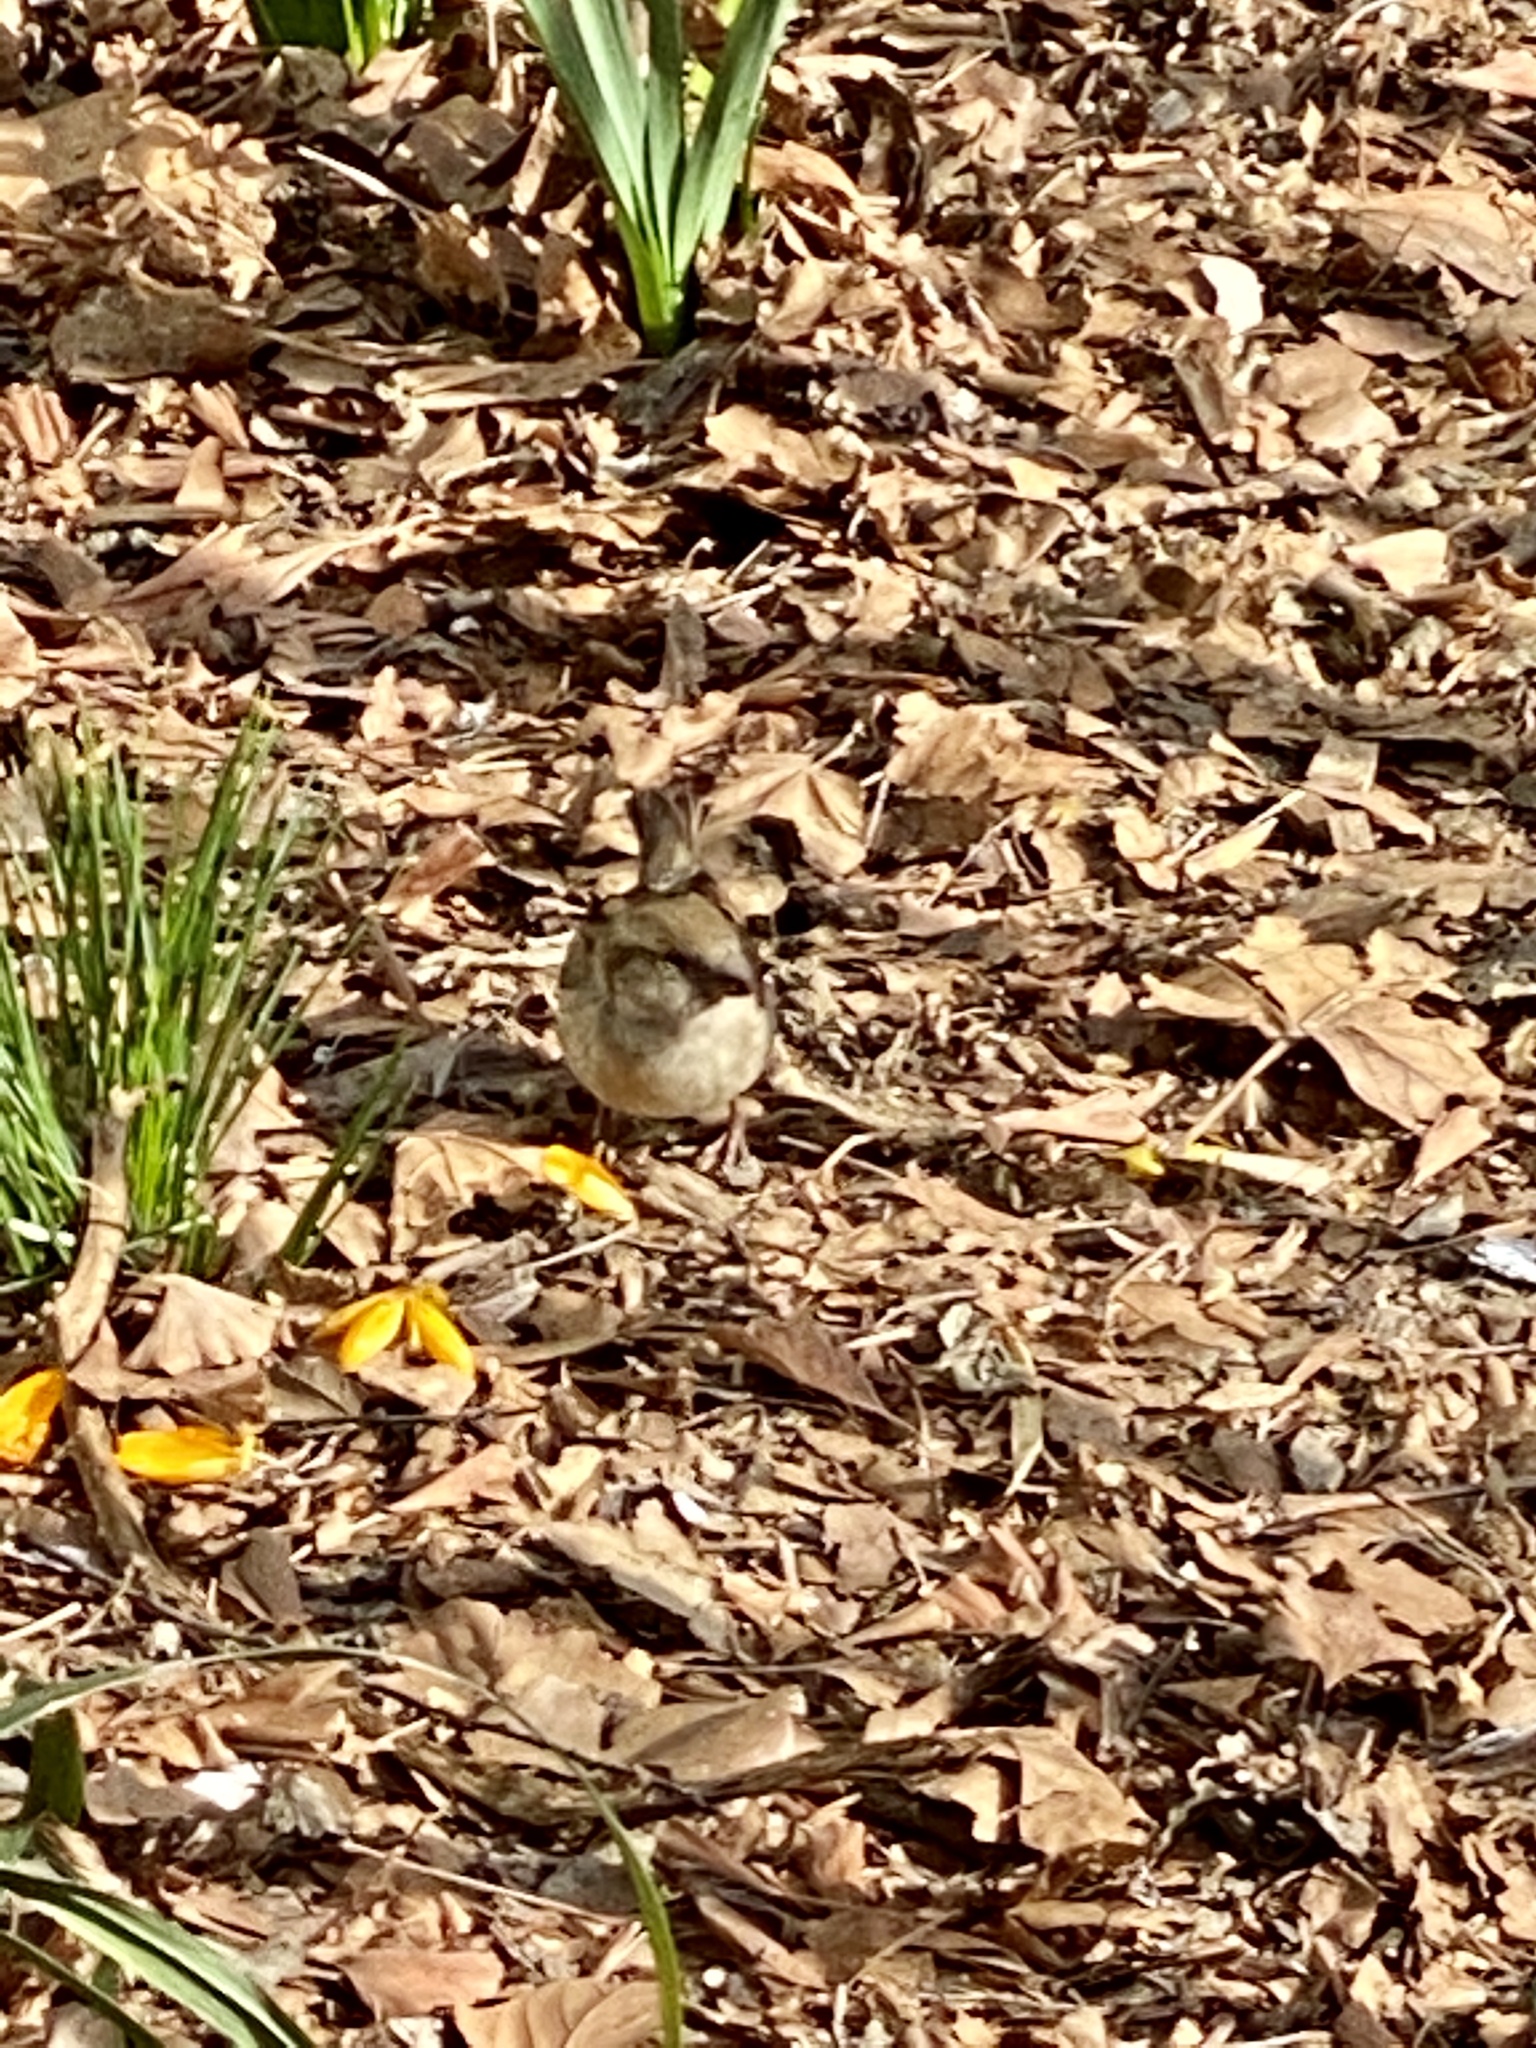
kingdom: Animalia
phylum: Chordata
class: Aves
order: Passeriformes
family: Passeridae
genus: Passer
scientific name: Passer domesticus
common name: House sparrow
